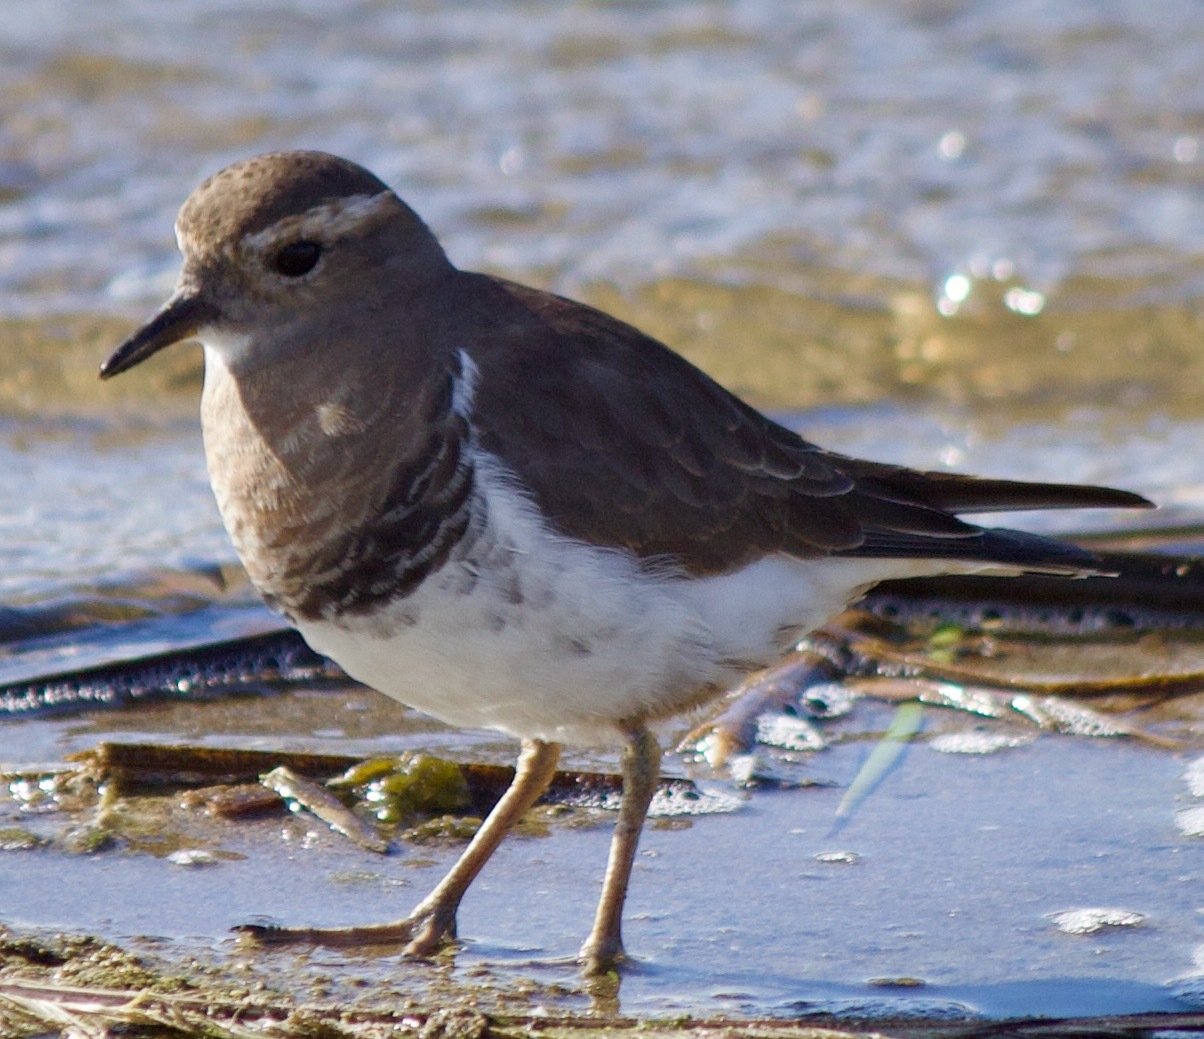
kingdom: Animalia
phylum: Chordata
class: Aves
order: Charadriiformes
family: Charadriidae
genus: Charadrius
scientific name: Charadrius modestus
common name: Rufous-chested plover
